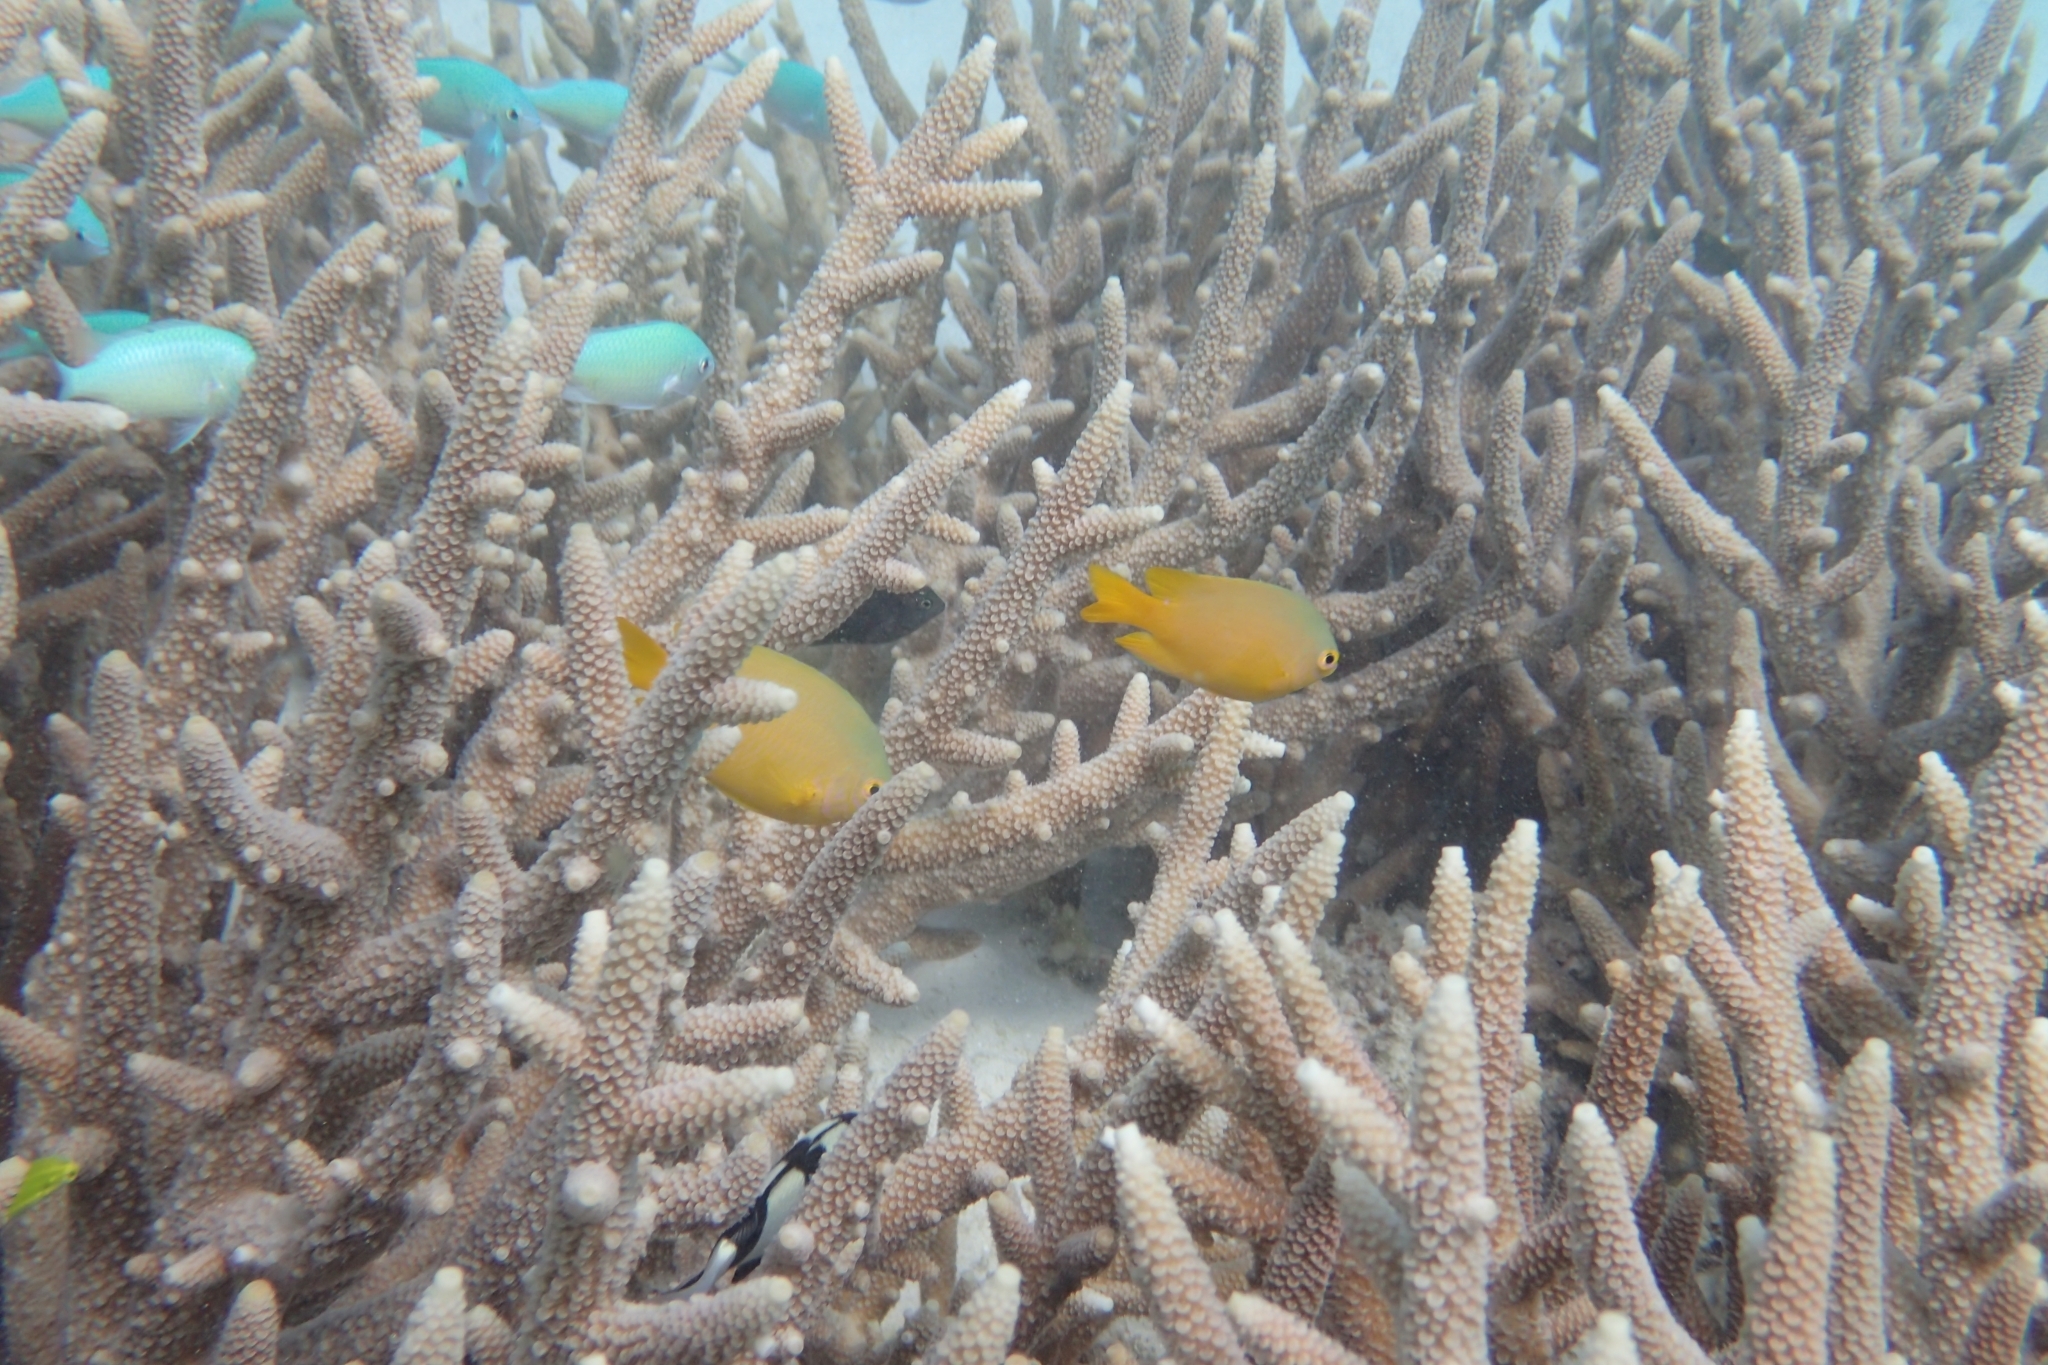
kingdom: Animalia
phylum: Chordata
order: Perciformes
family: Pomacentridae
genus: Pomacentrus
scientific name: Pomacentrus moluccensis
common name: Lemon damsel
